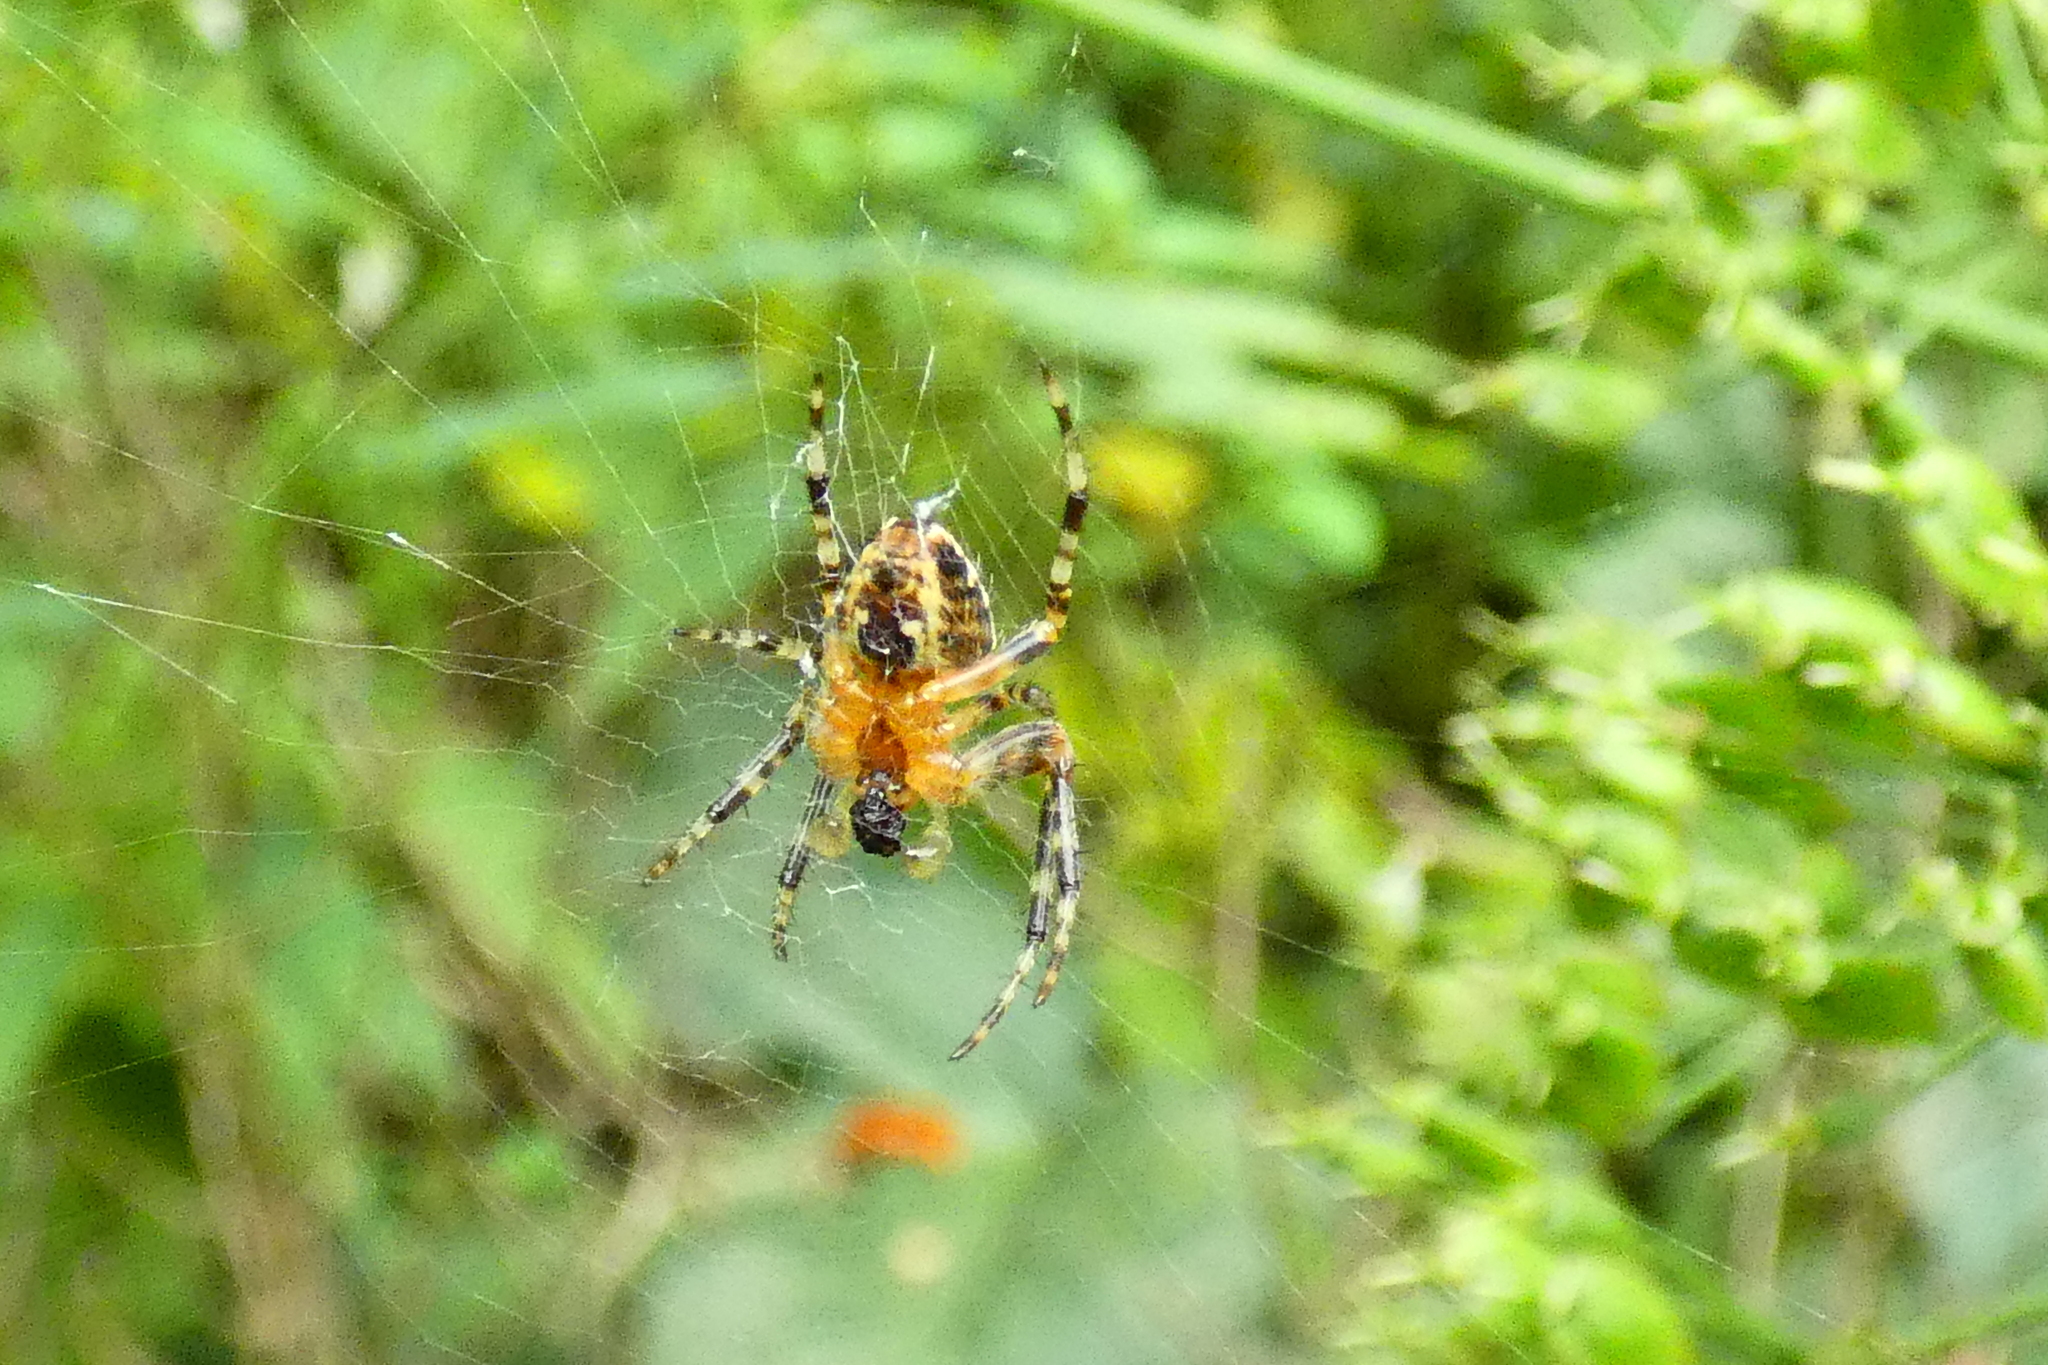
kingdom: Animalia
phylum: Arthropoda
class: Arachnida
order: Araneae
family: Araneidae
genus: Araneus
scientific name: Araneus diadematus
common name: Cross orbweaver
